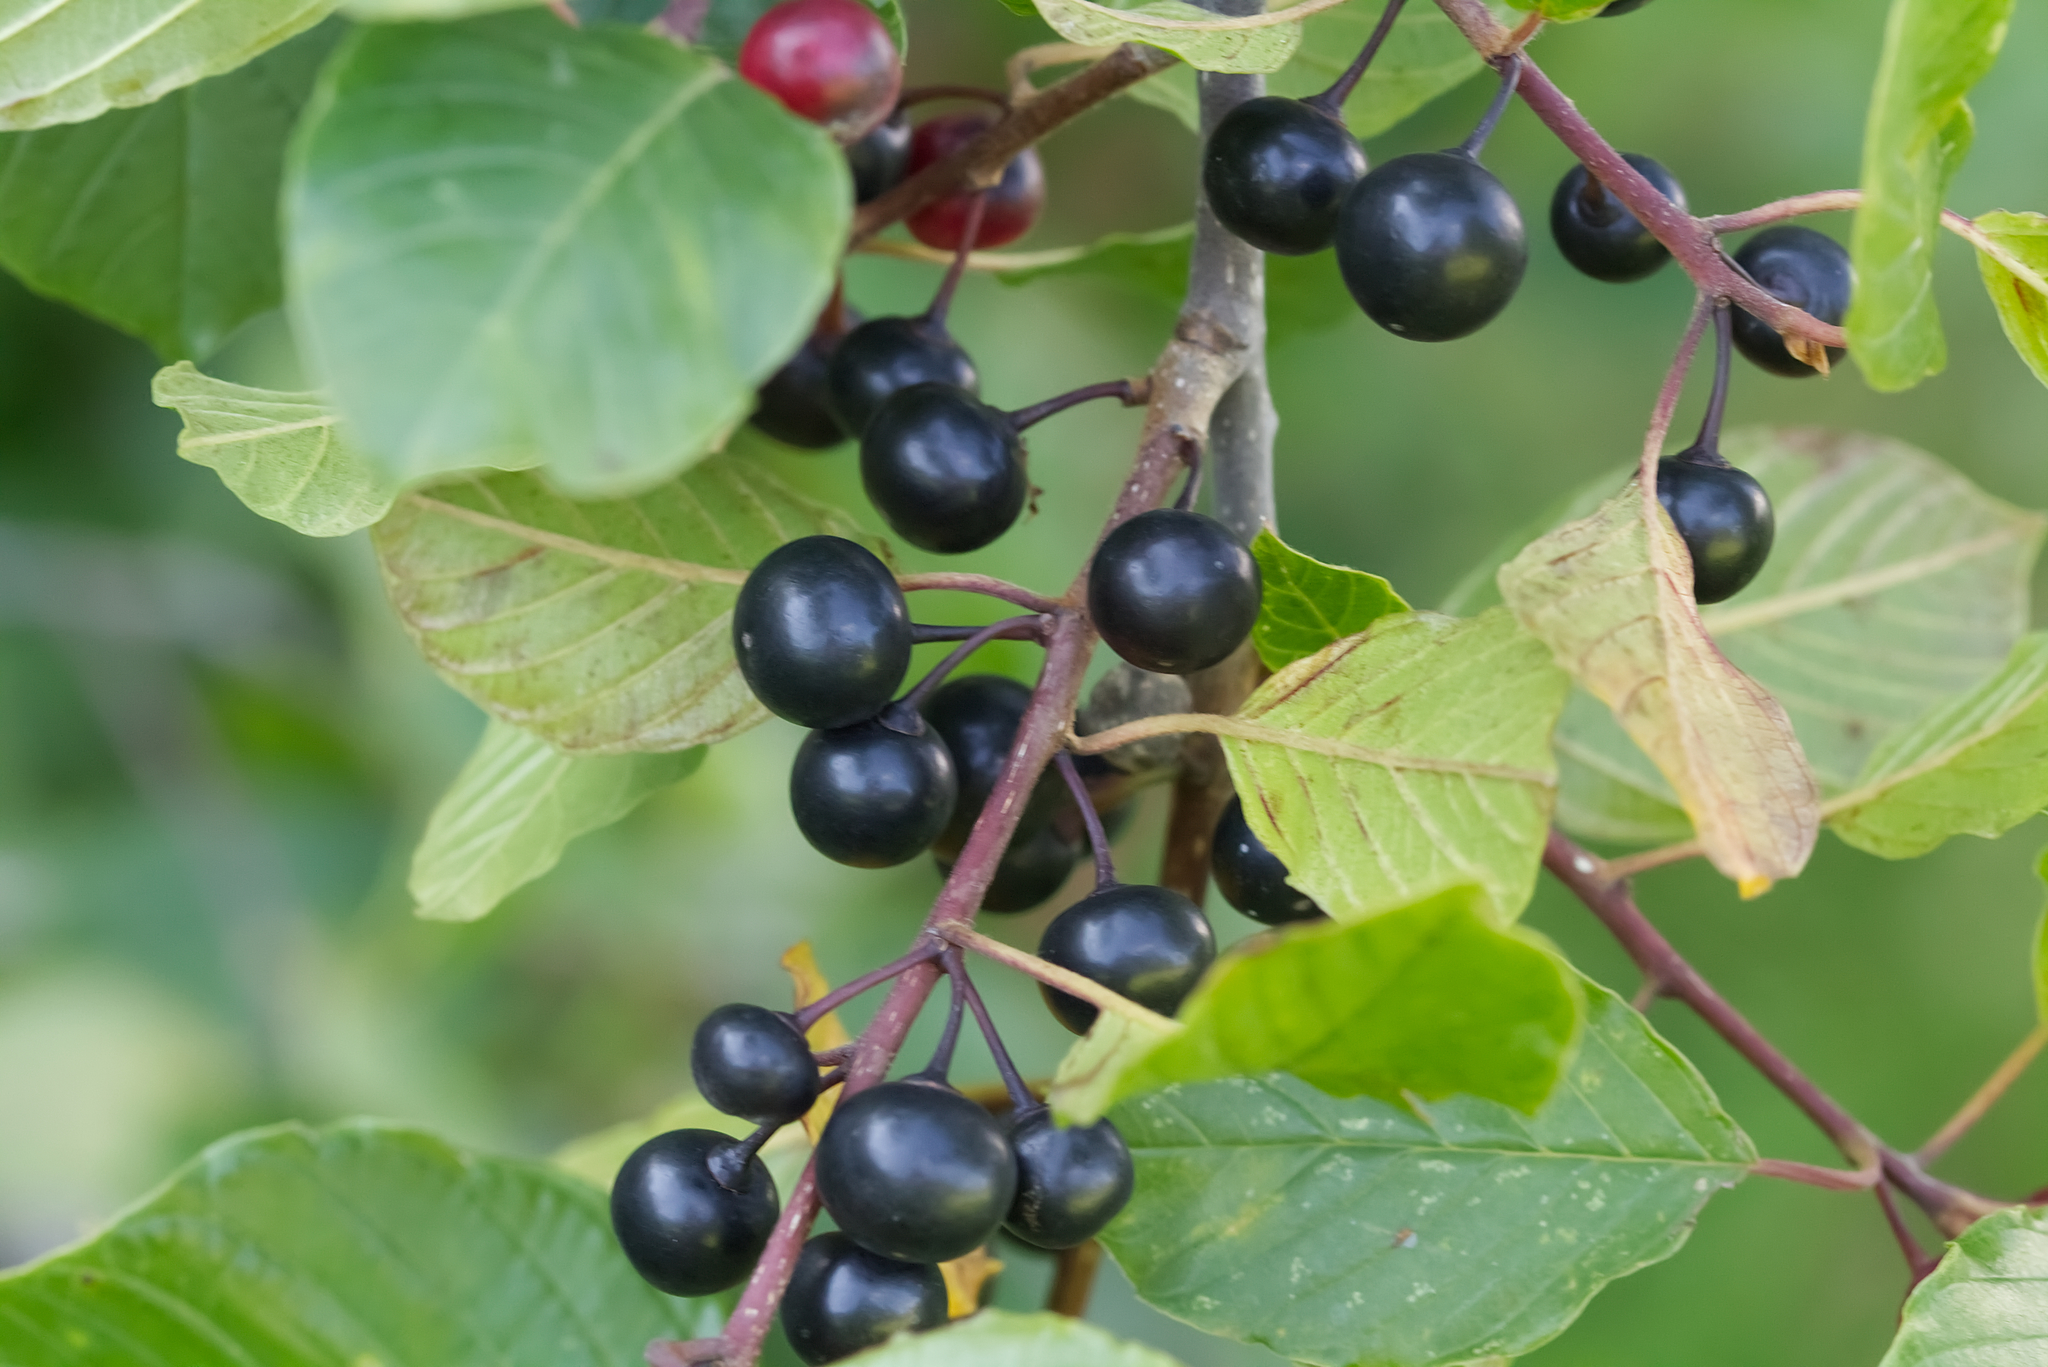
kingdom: Plantae
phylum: Tracheophyta
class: Magnoliopsida
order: Rosales
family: Rhamnaceae
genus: Frangula
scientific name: Frangula alnus
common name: Alder buckthorn
